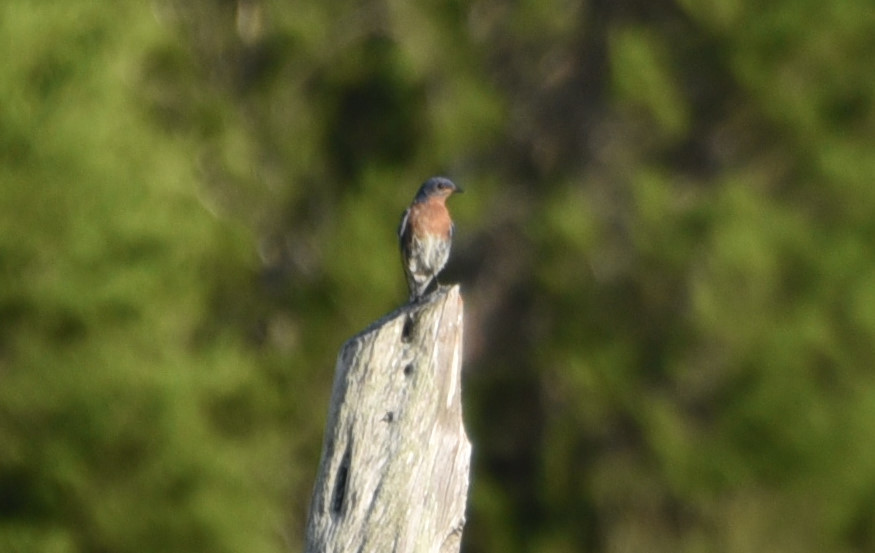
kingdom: Animalia
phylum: Chordata
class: Aves
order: Passeriformes
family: Turdidae
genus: Sialia
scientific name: Sialia sialis
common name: Eastern bluebird
